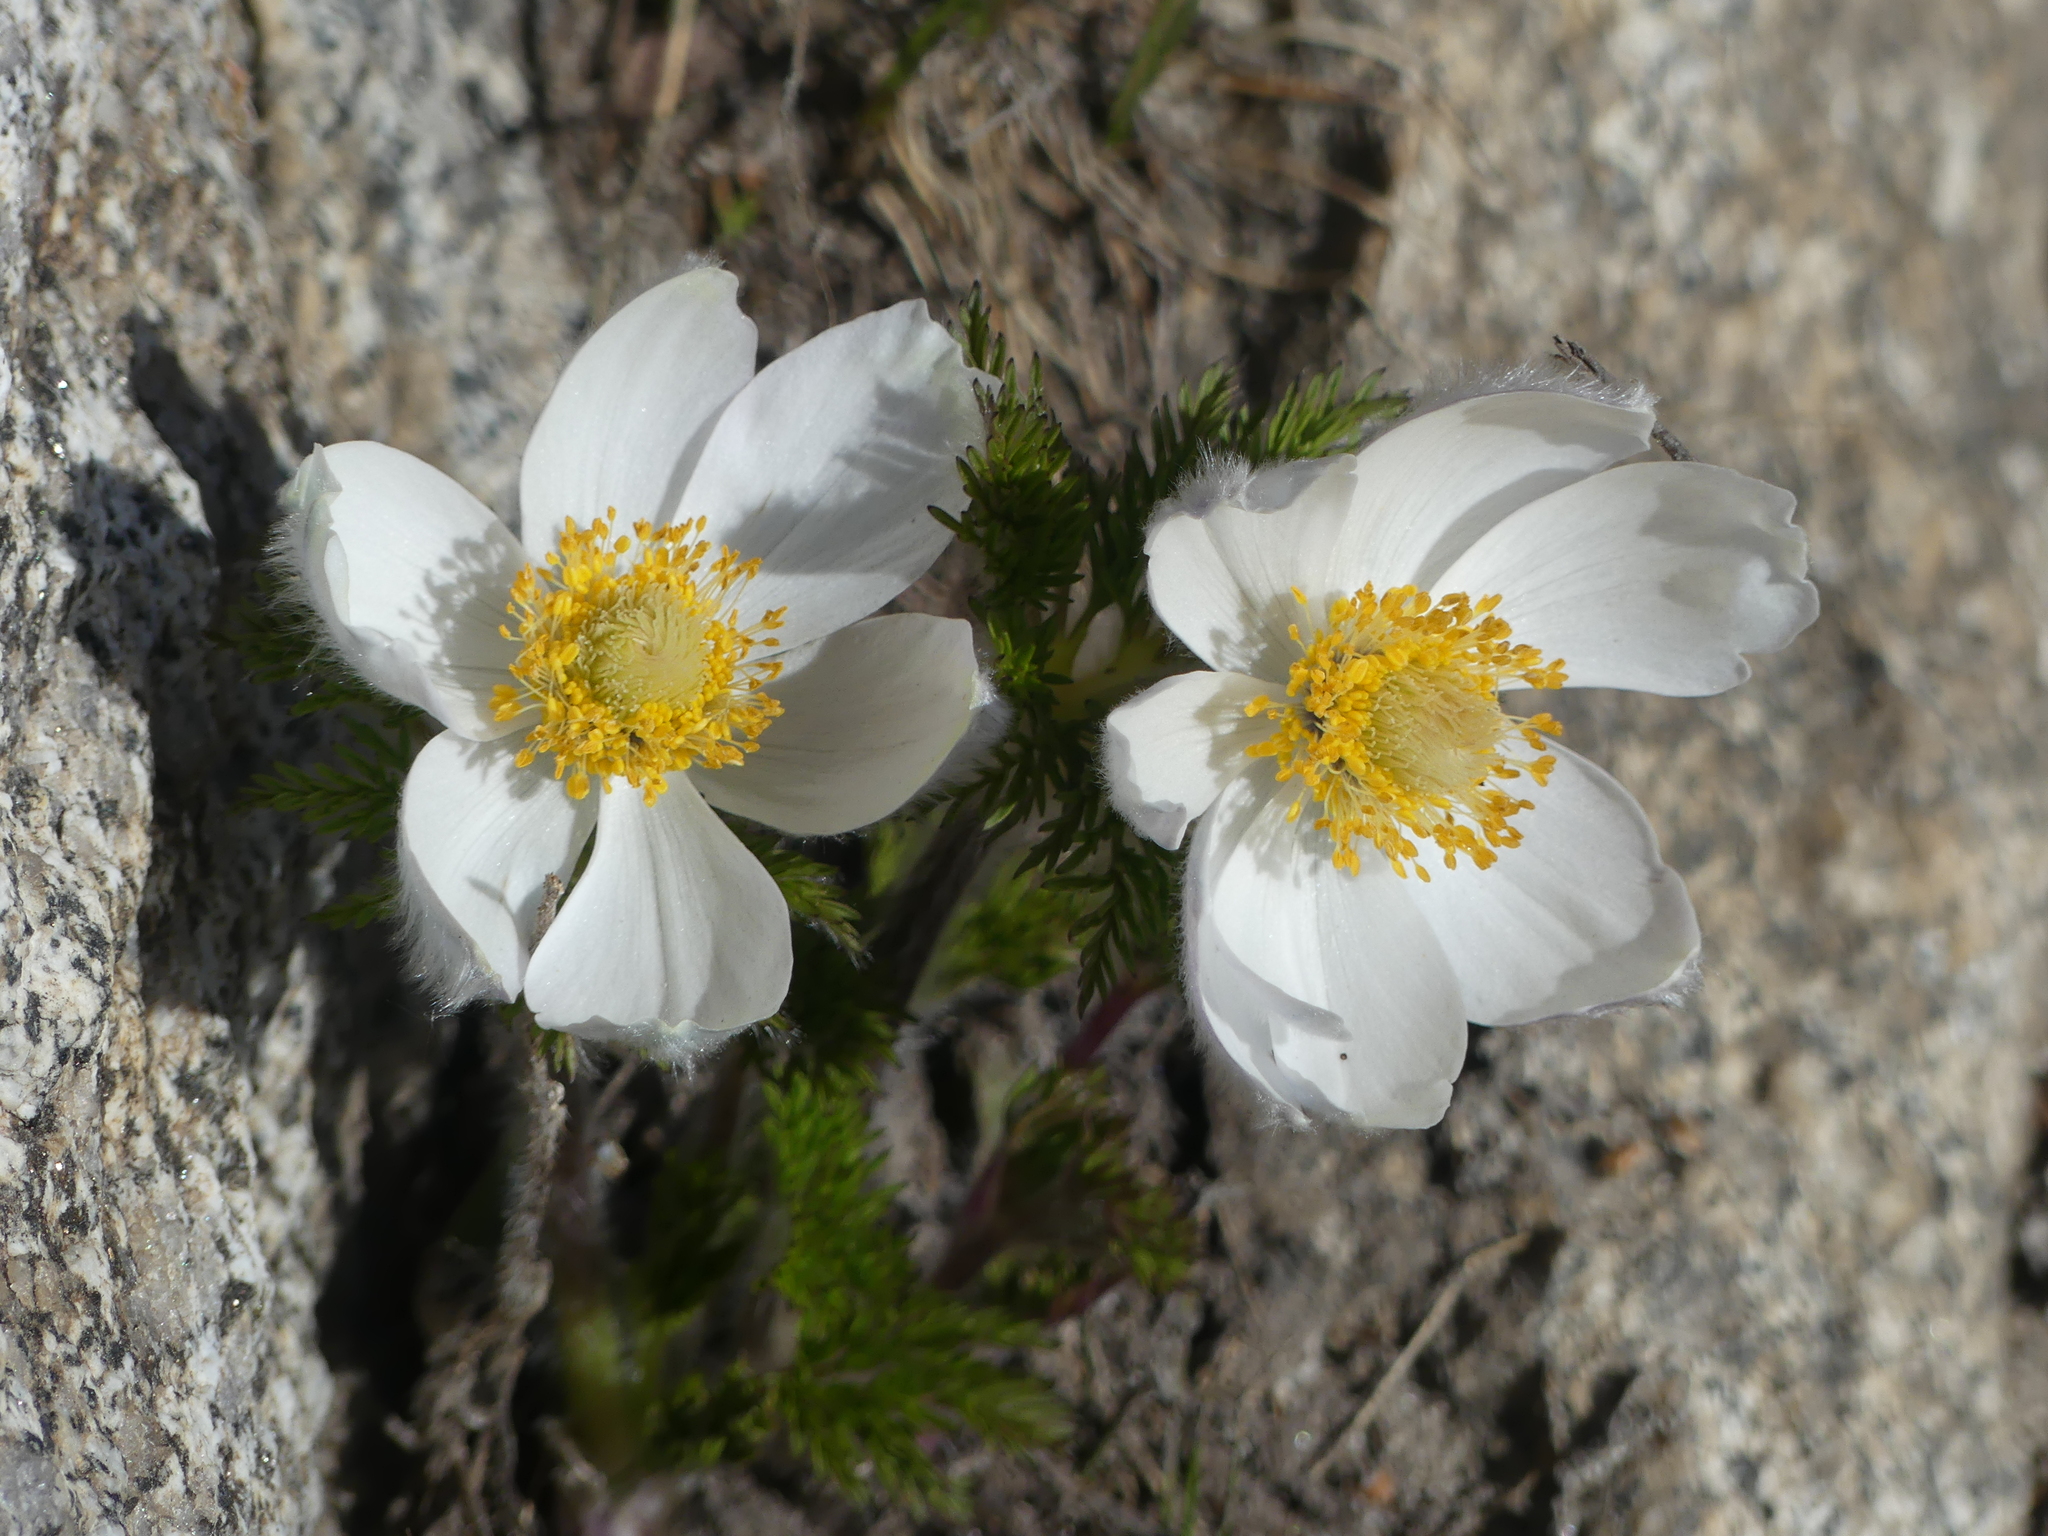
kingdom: Plantae
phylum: Tracheophyta
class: Magnoliopsida
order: Ranunculales
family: Ranunculaceae
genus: Pulsatilla
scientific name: Pulsatilla occidentalis
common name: Mountain pasqueflower
